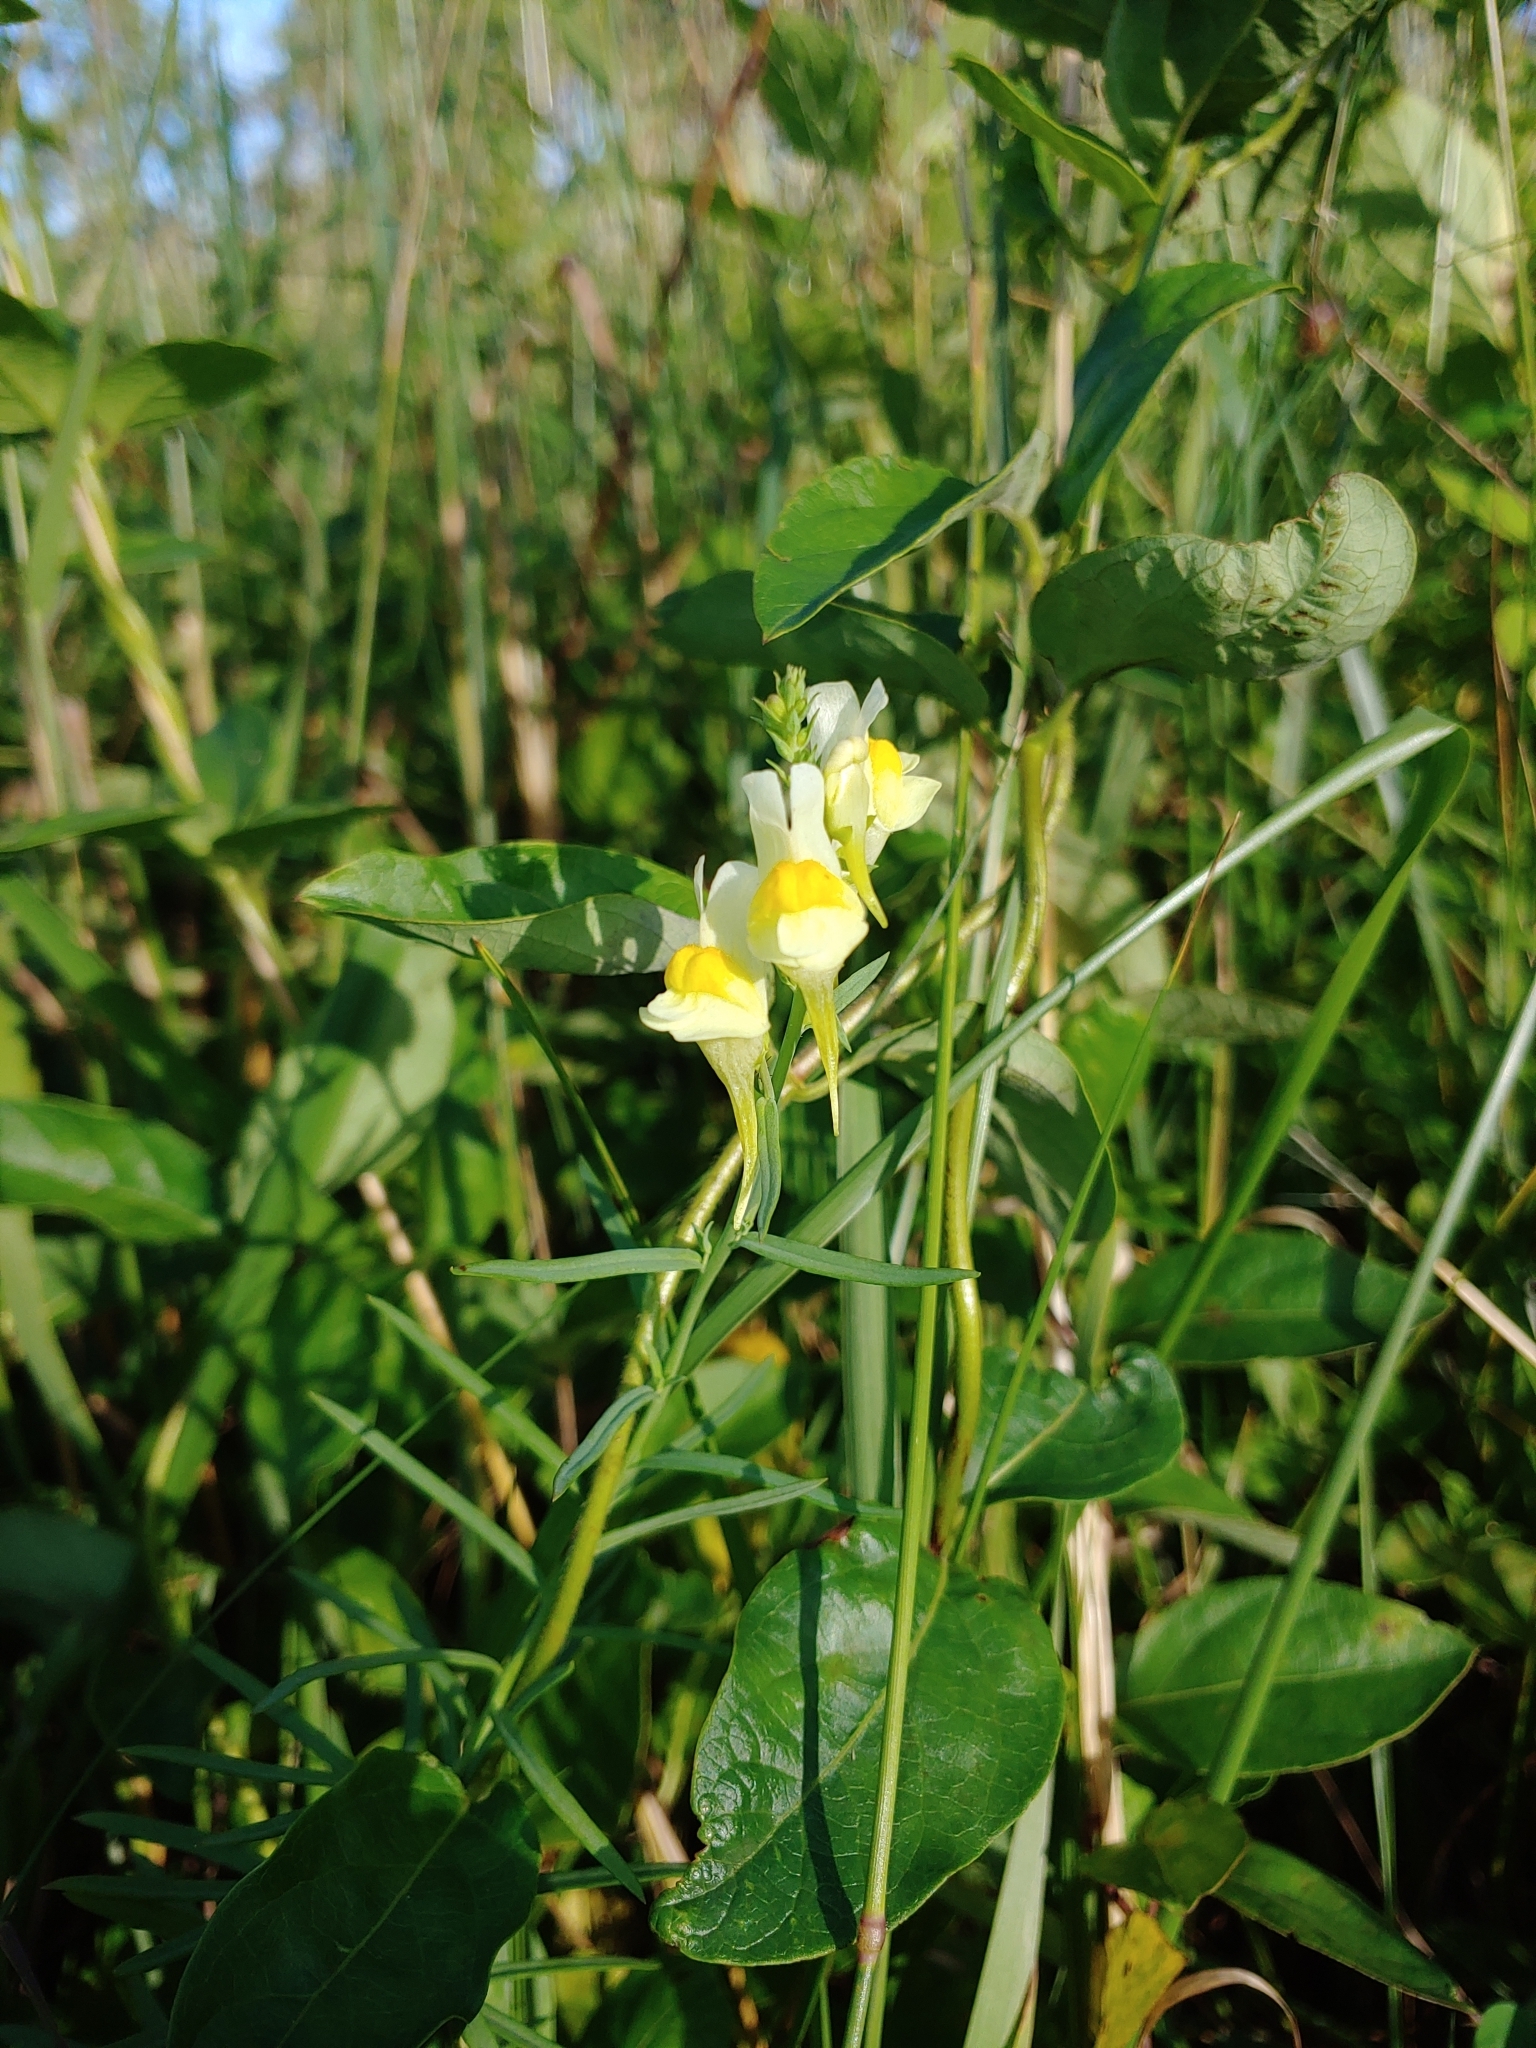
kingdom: Plantae
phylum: Tracheophyta
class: Magnoliopsida
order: Lamiales
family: Plantaginaceae
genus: Linaria
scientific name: Linaria vulgaris
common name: Butter and eggs
